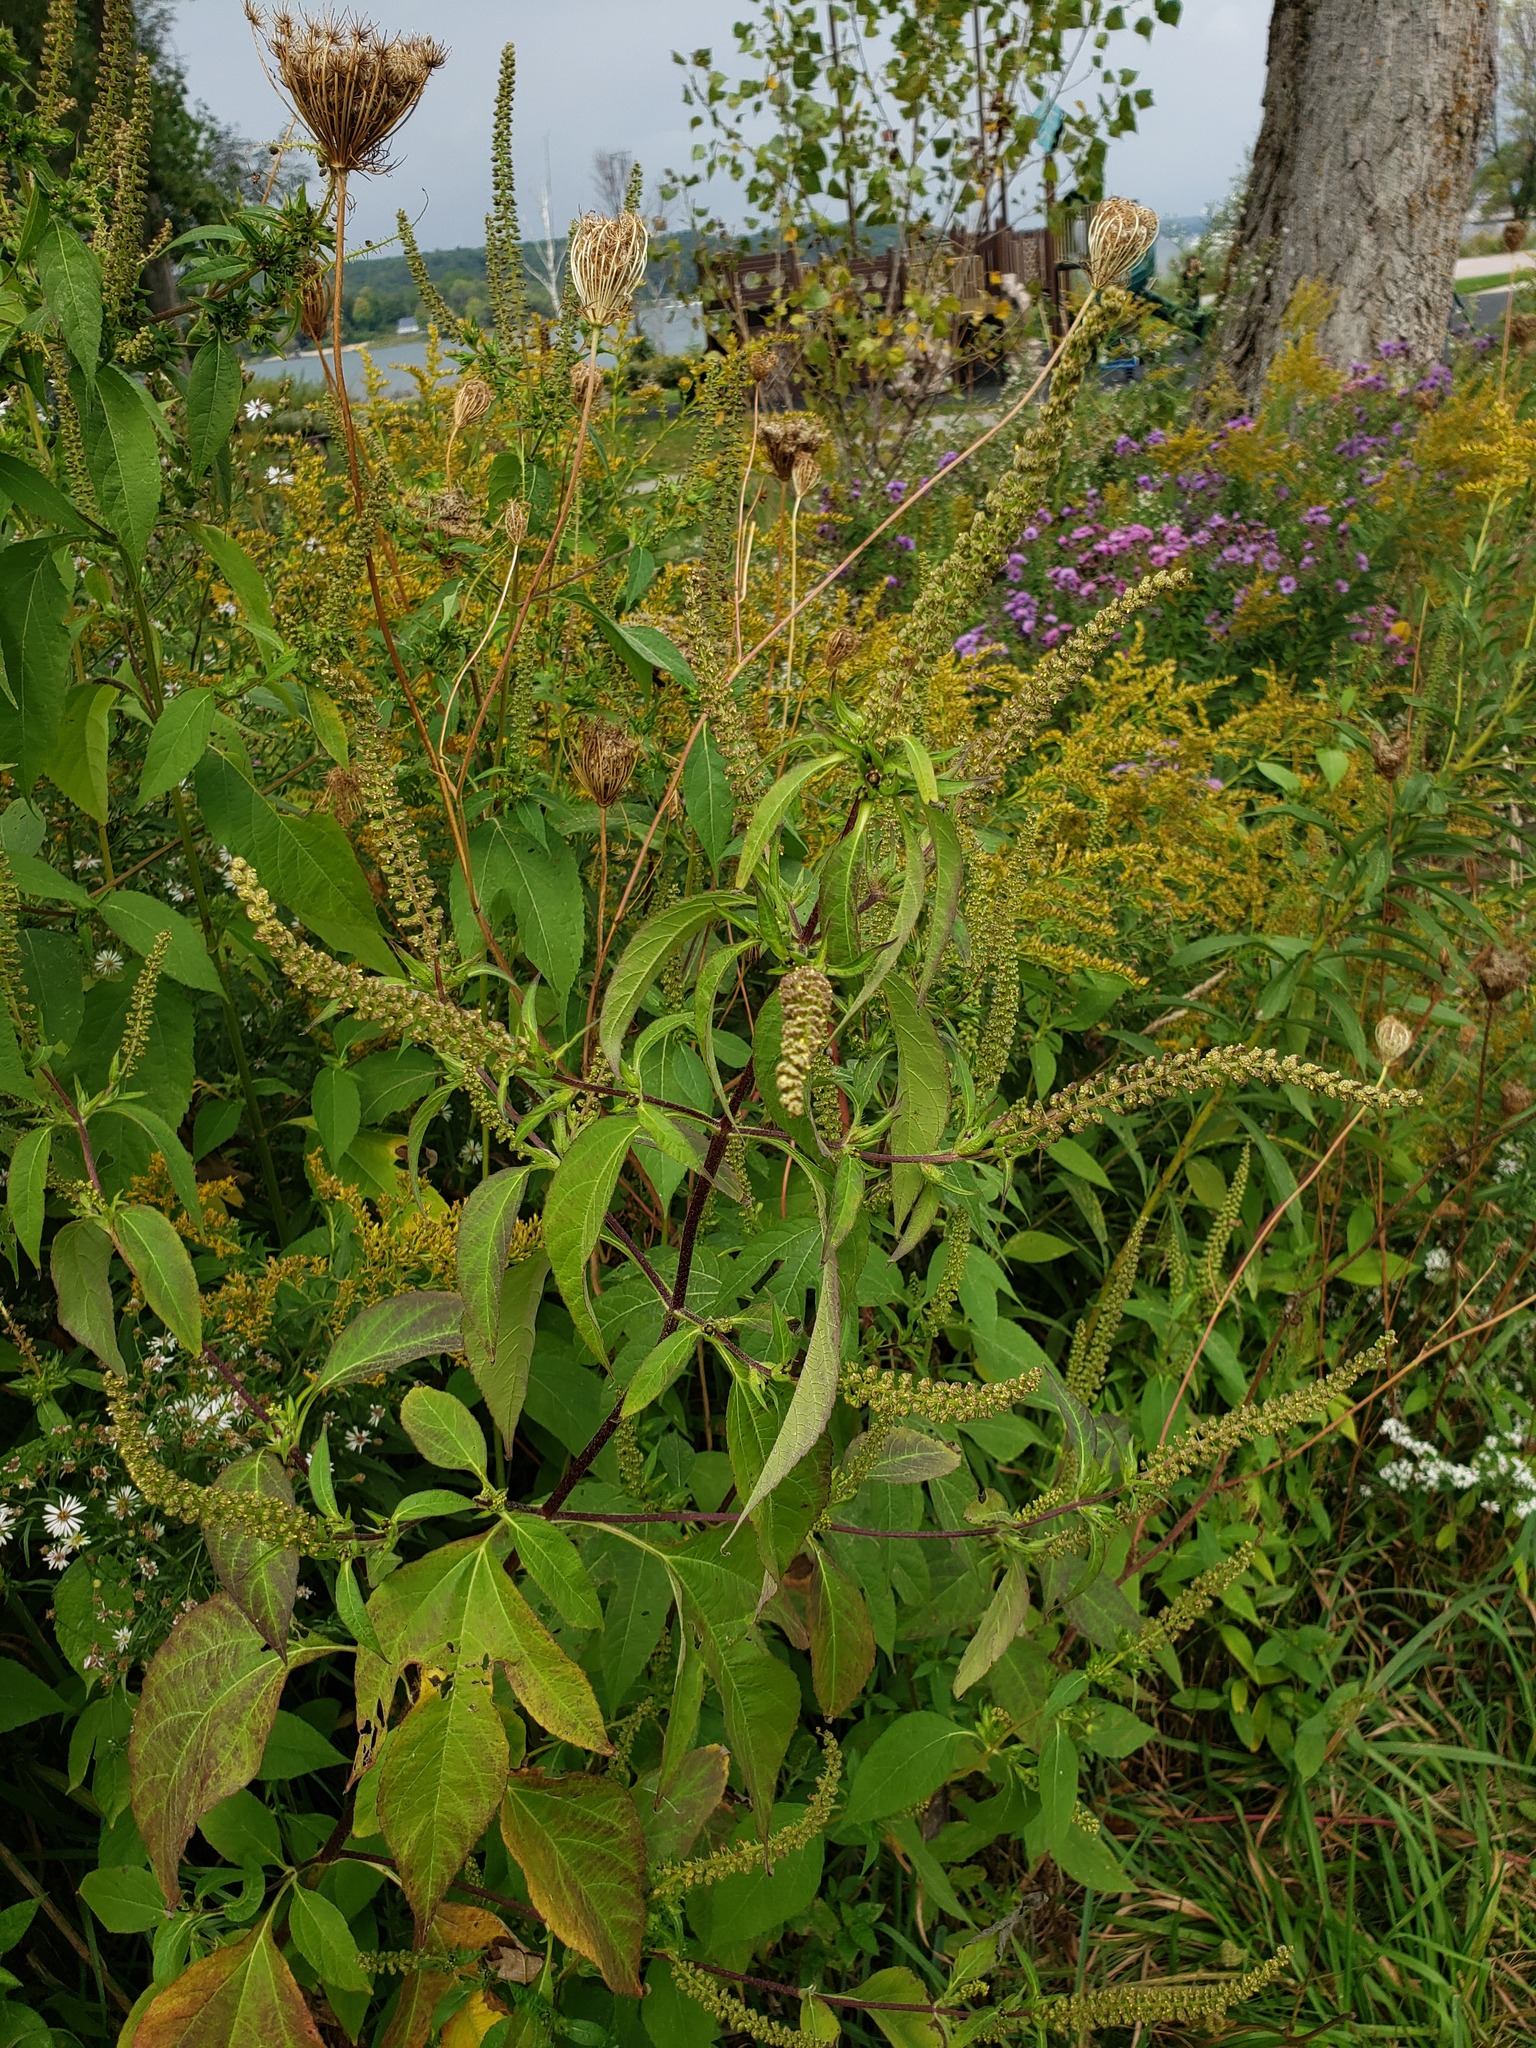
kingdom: Plantae
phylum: Tracheophyta
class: Magnoliopsida
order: Asterales
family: Asteraceae
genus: Ambrosia
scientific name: Ambrosia trifida
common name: Giant ragweed
